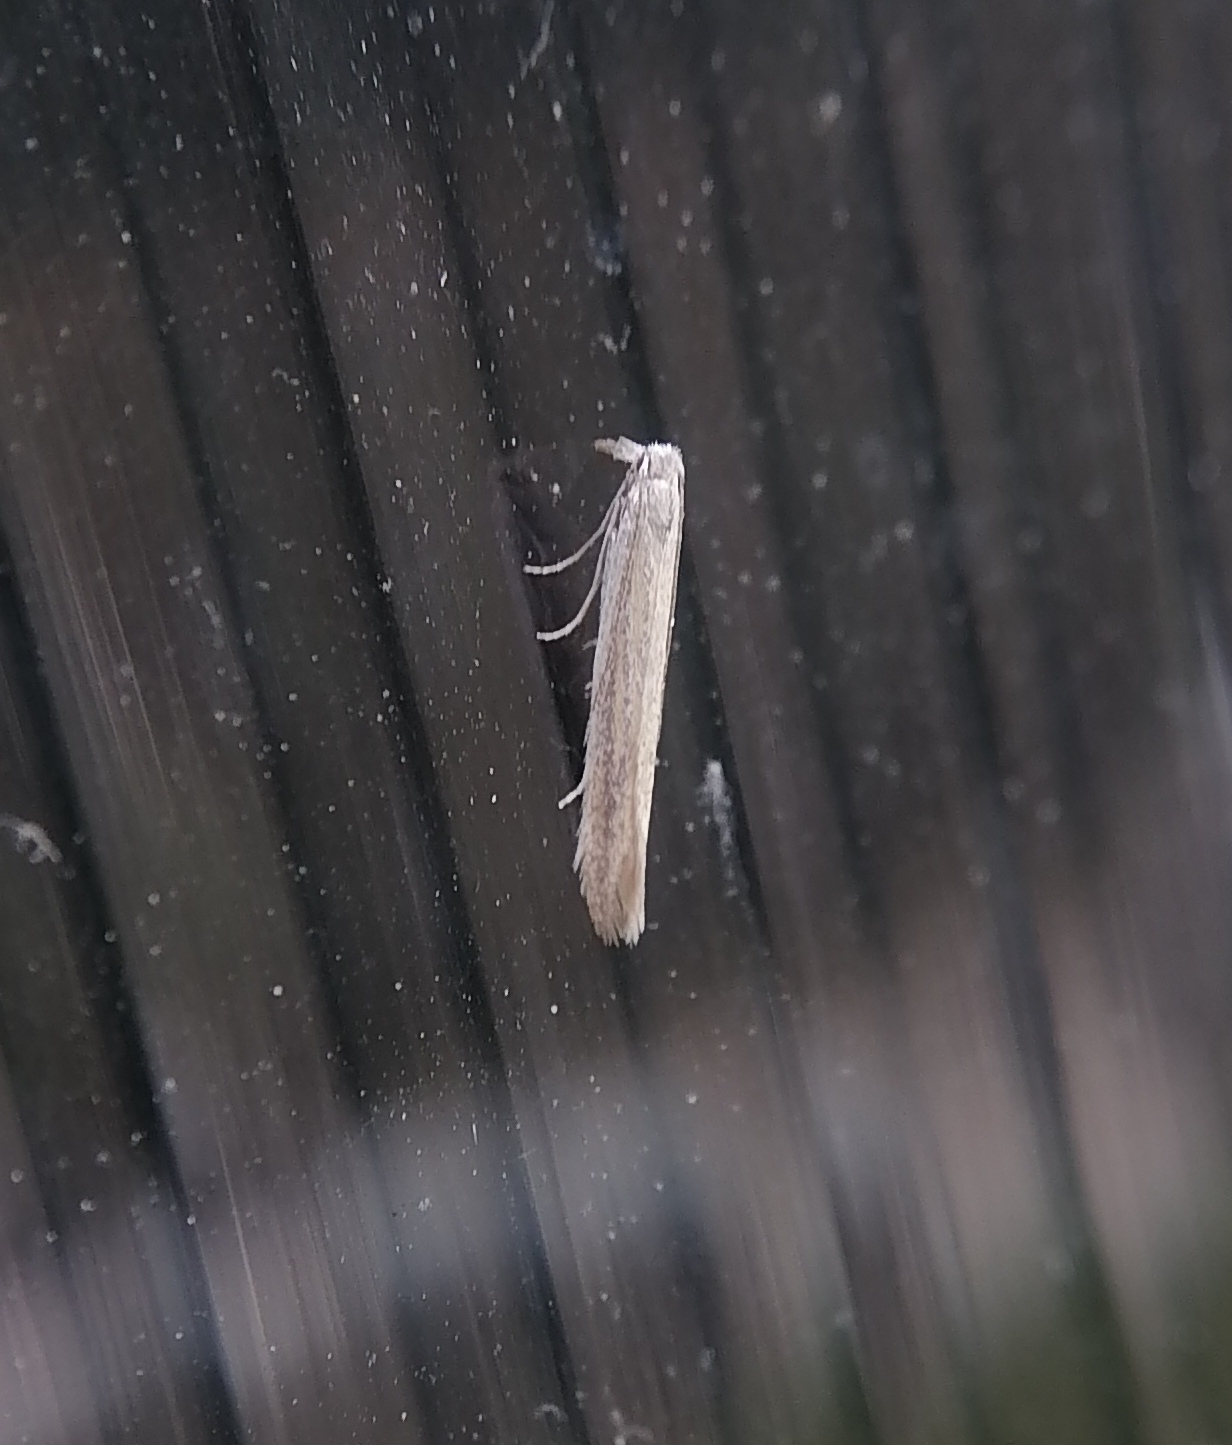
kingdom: Animalia
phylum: Arthropoda
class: Insecta
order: Lepidoptera
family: Bedelliidae
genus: Bedellia
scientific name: Bedellia somnulentella
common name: Morning-glory leafminer moth
